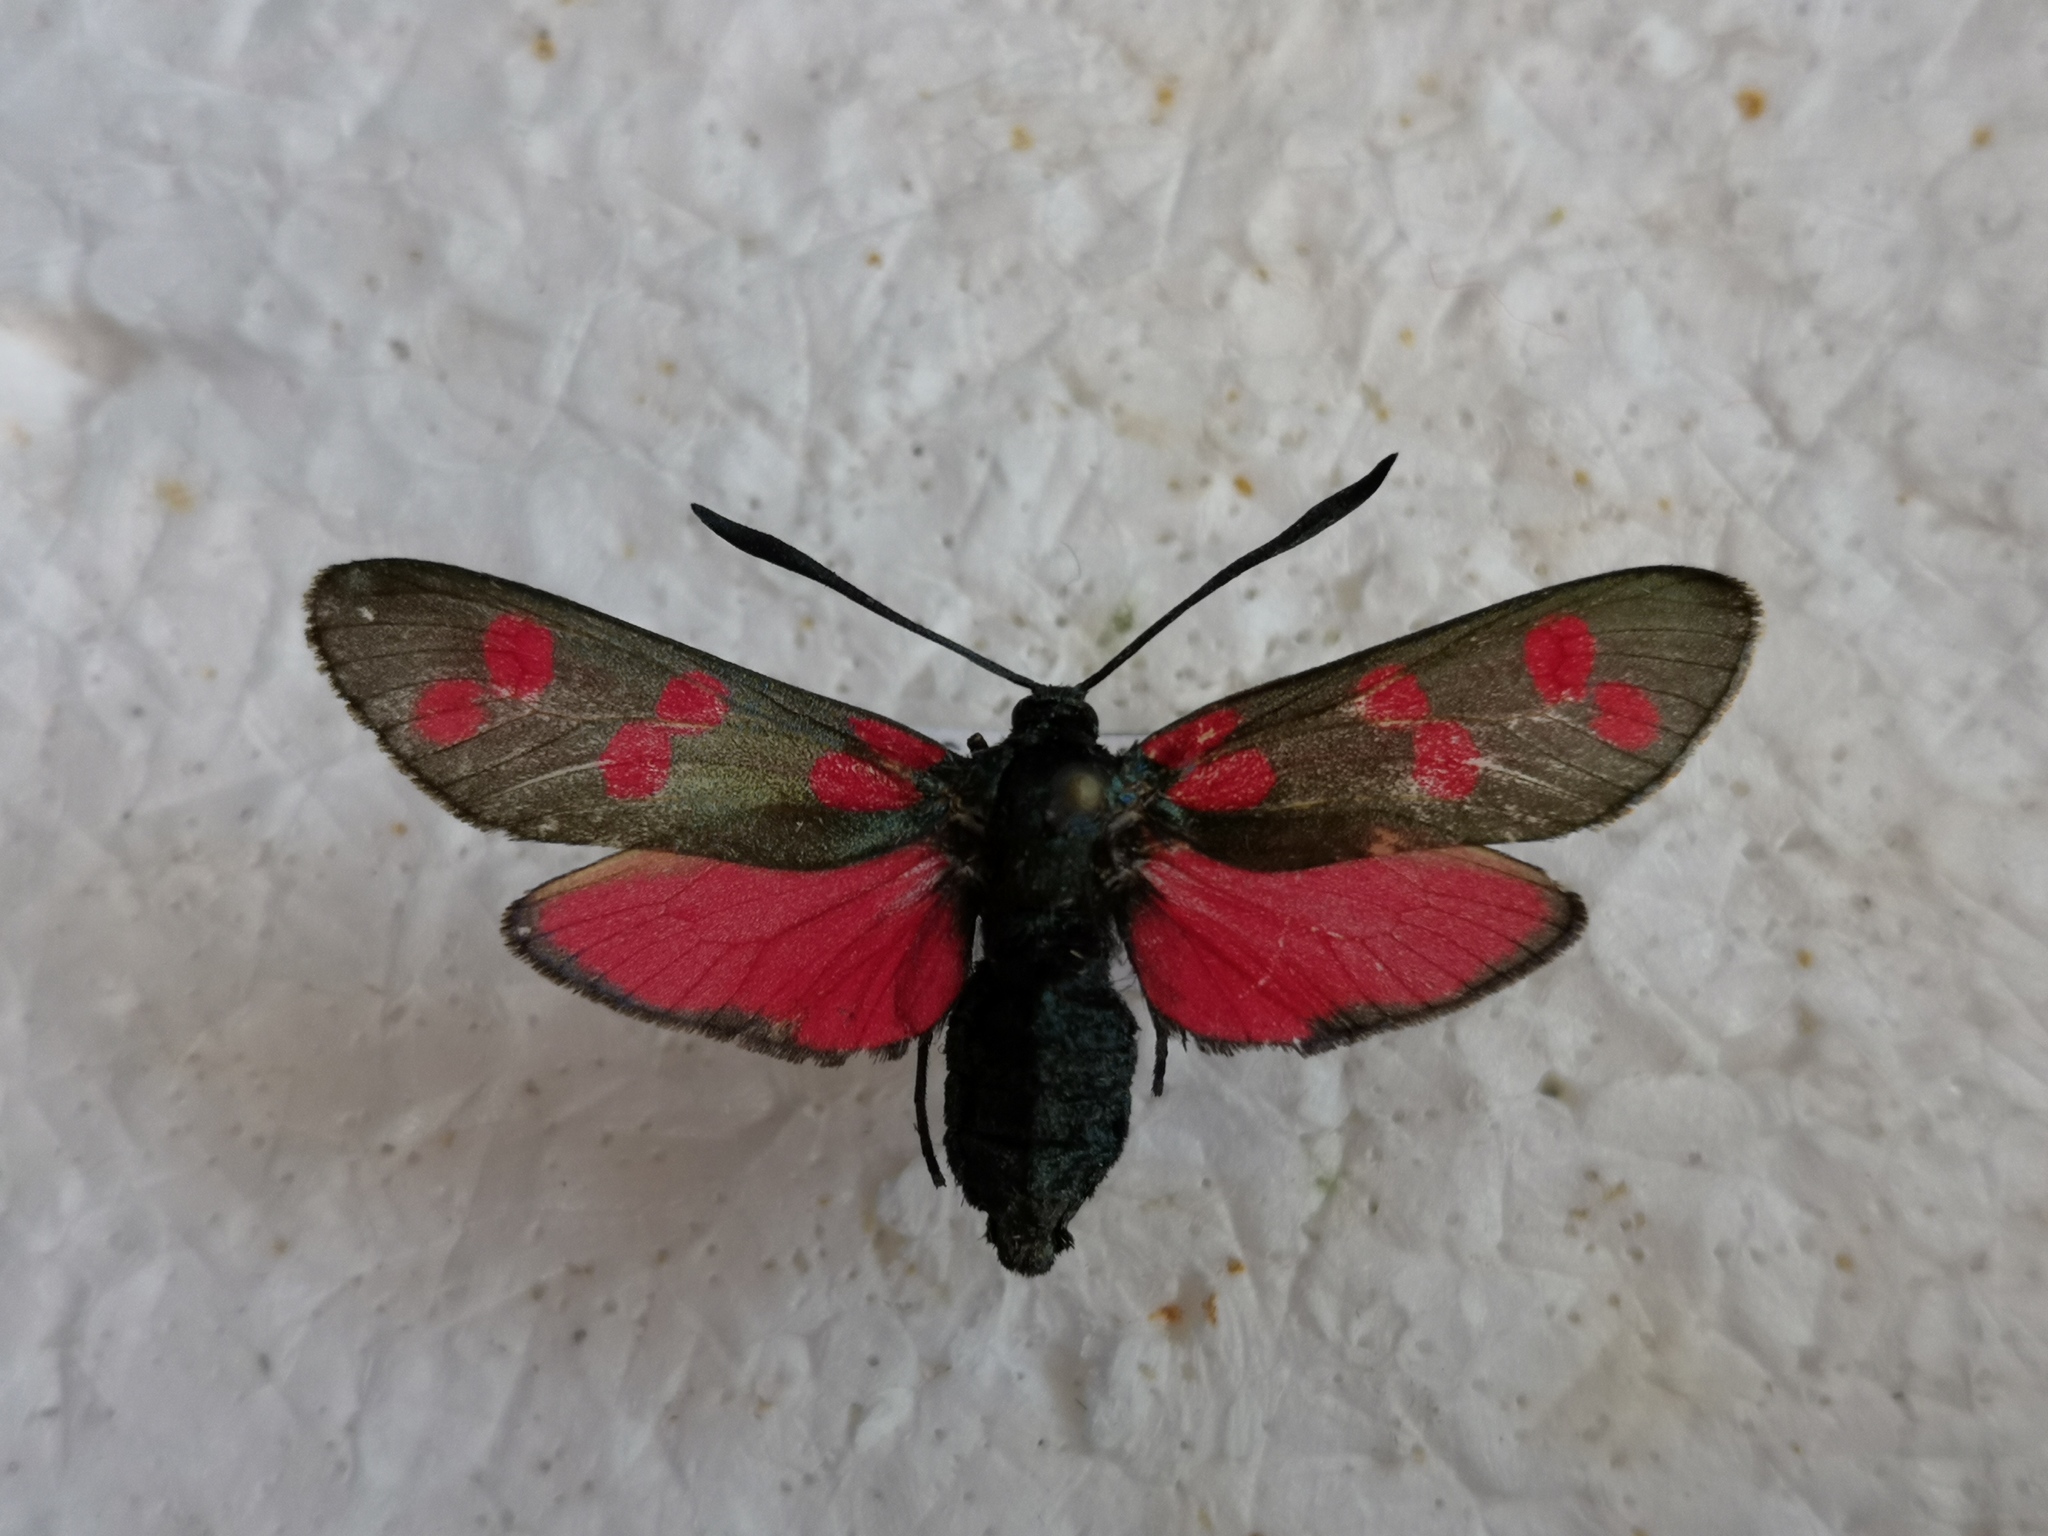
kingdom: Animalia
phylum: Arthropoda
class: Insecta
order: Lepidoptera
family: Zygaenidae
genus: Zygaena
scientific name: Zygaena filipendulae
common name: Six-spot burnet
